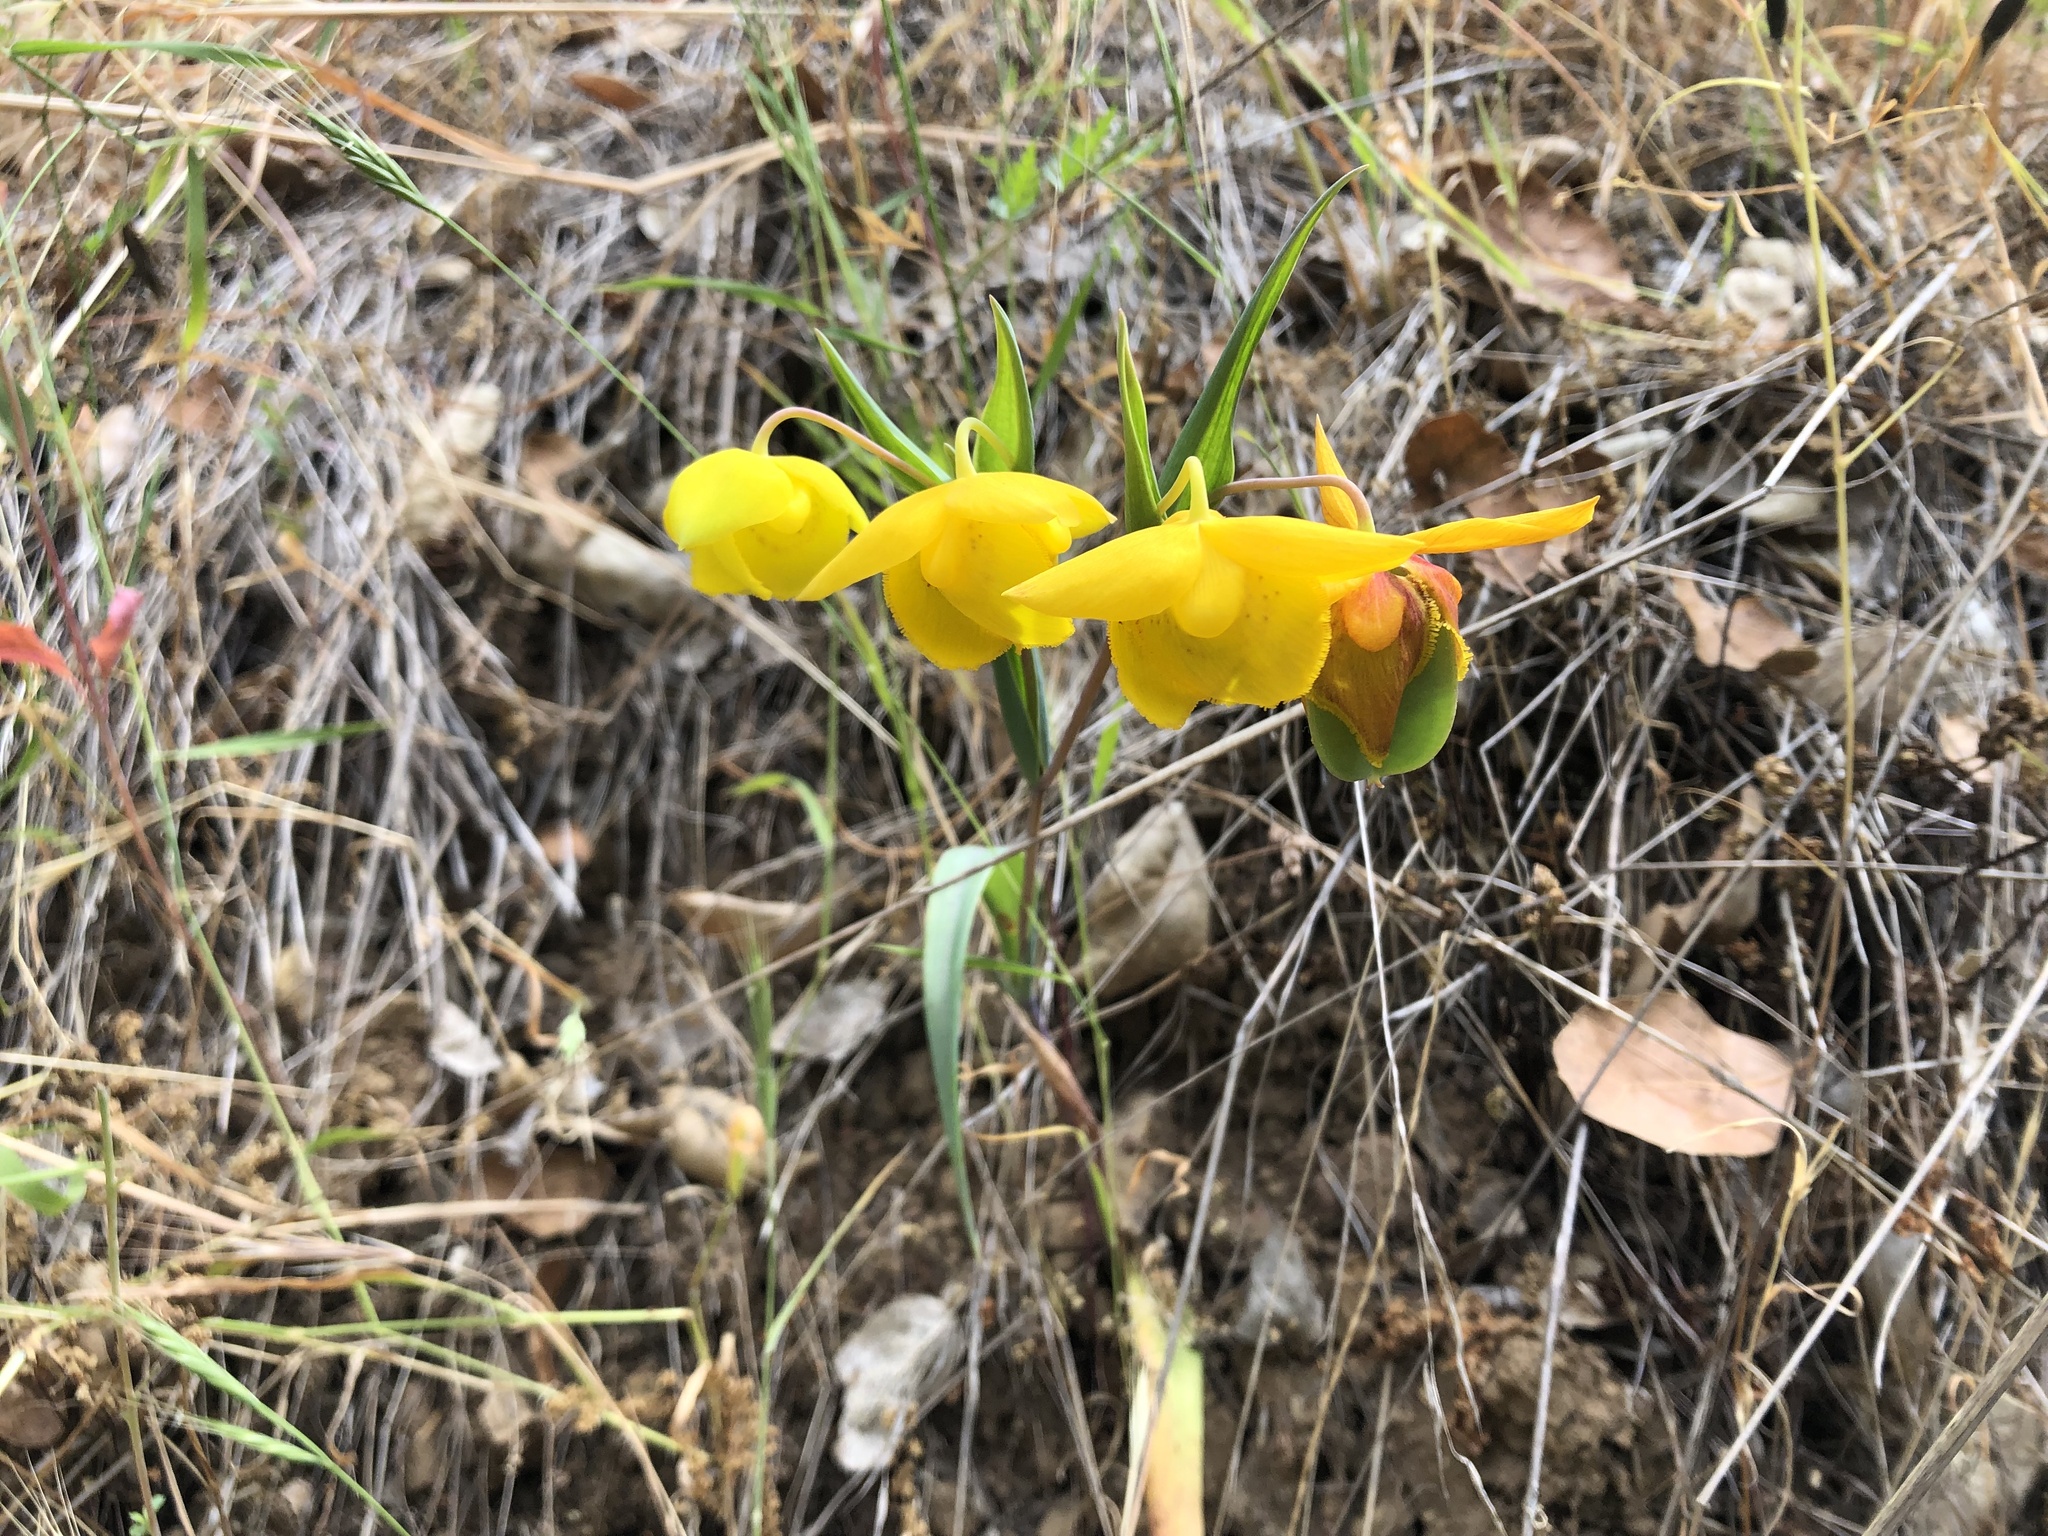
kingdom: Plantae
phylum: Tracheophyta
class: Liliopsida
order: Liliales
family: Liliaceae
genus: Calochortus
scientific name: Calochortus amabilis
